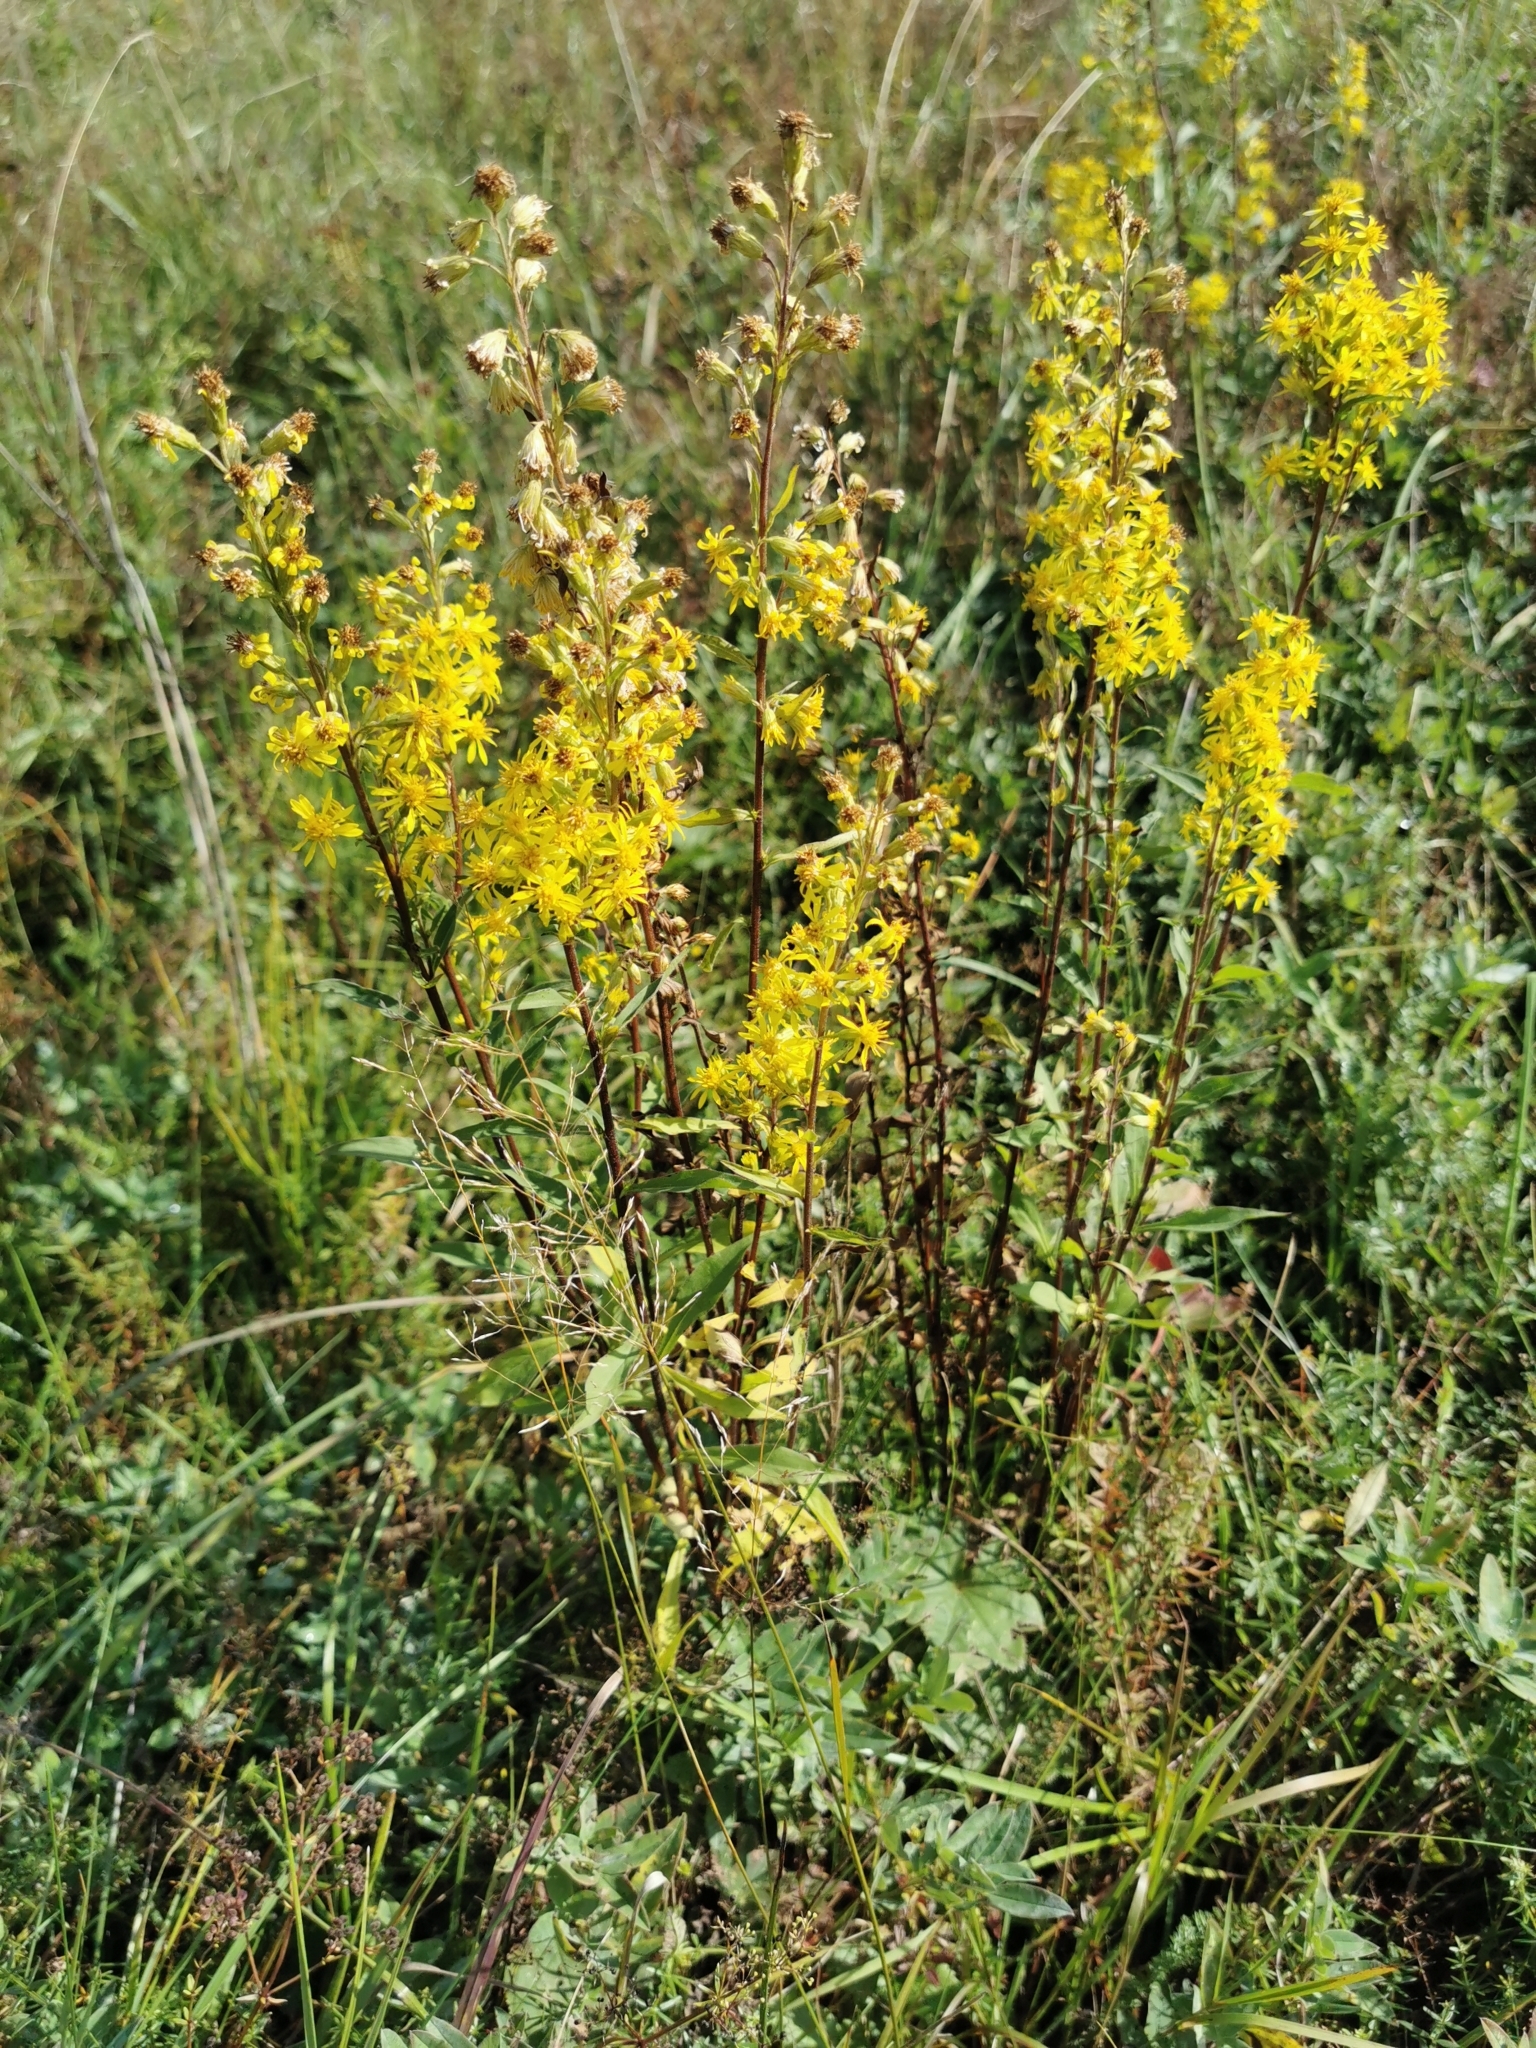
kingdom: Plantae
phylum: Tracheophyta
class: Magnoliopsida
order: Asterales
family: Asteraceae
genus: Solidago
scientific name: Solidago virgaurea
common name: Goldenrod
